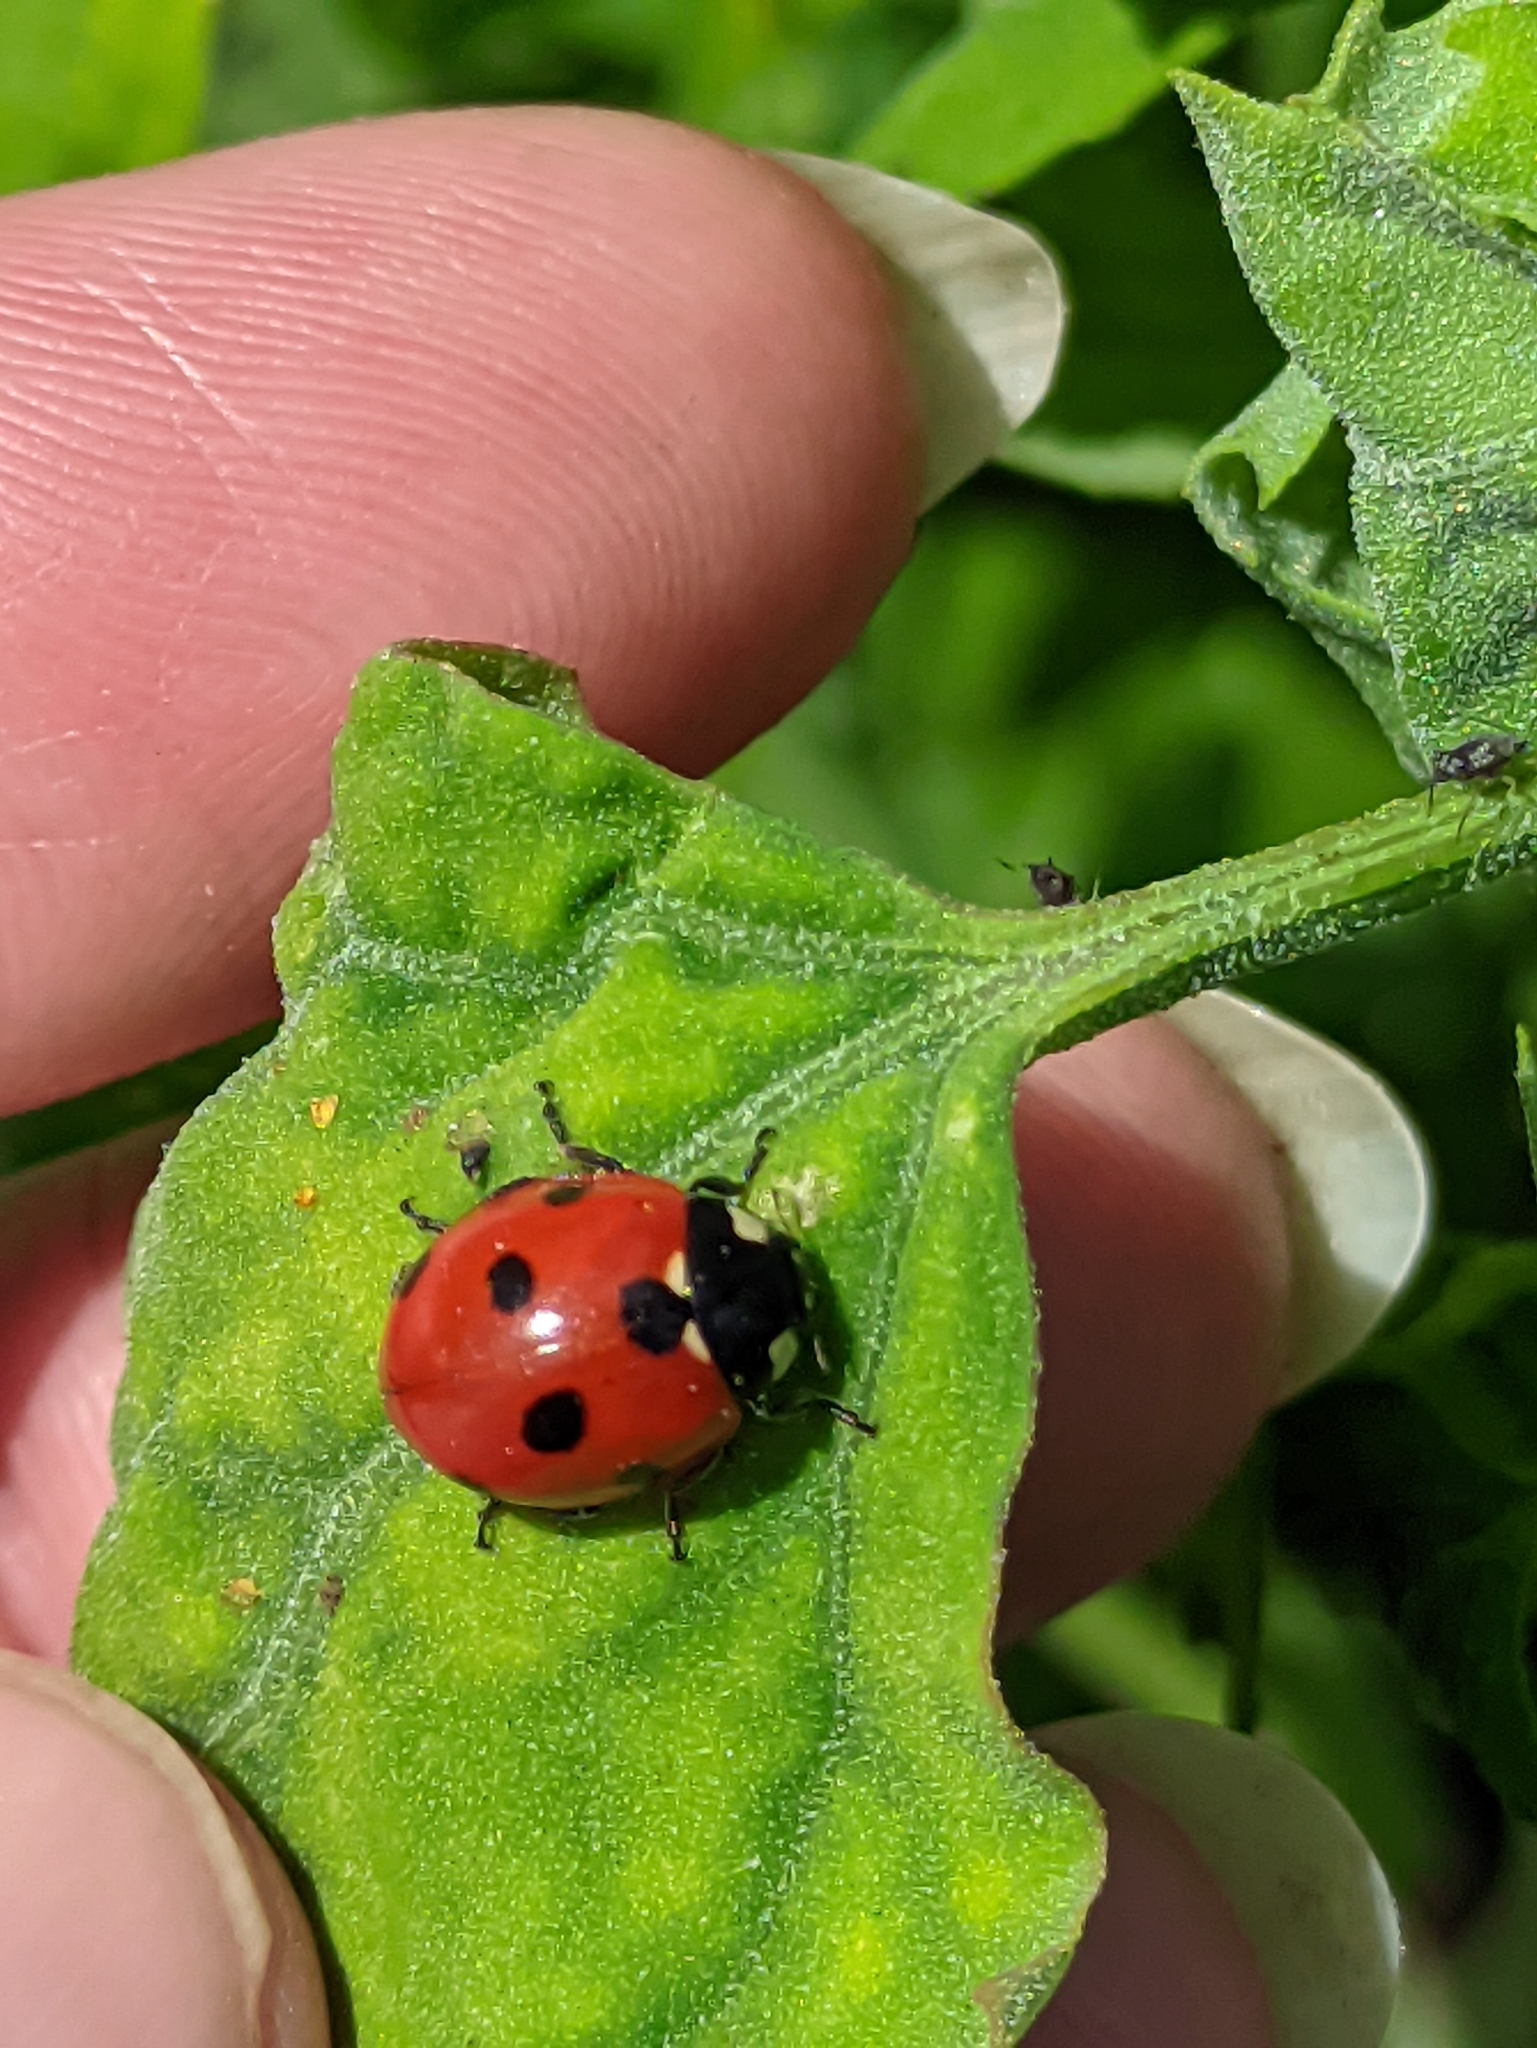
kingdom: Animalia
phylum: Arthropoda
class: Insecta
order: Coleoptera
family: Coccinellidae
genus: Coccinella
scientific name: Coccinella septempunctata
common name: Sevenspotted lady beetle
